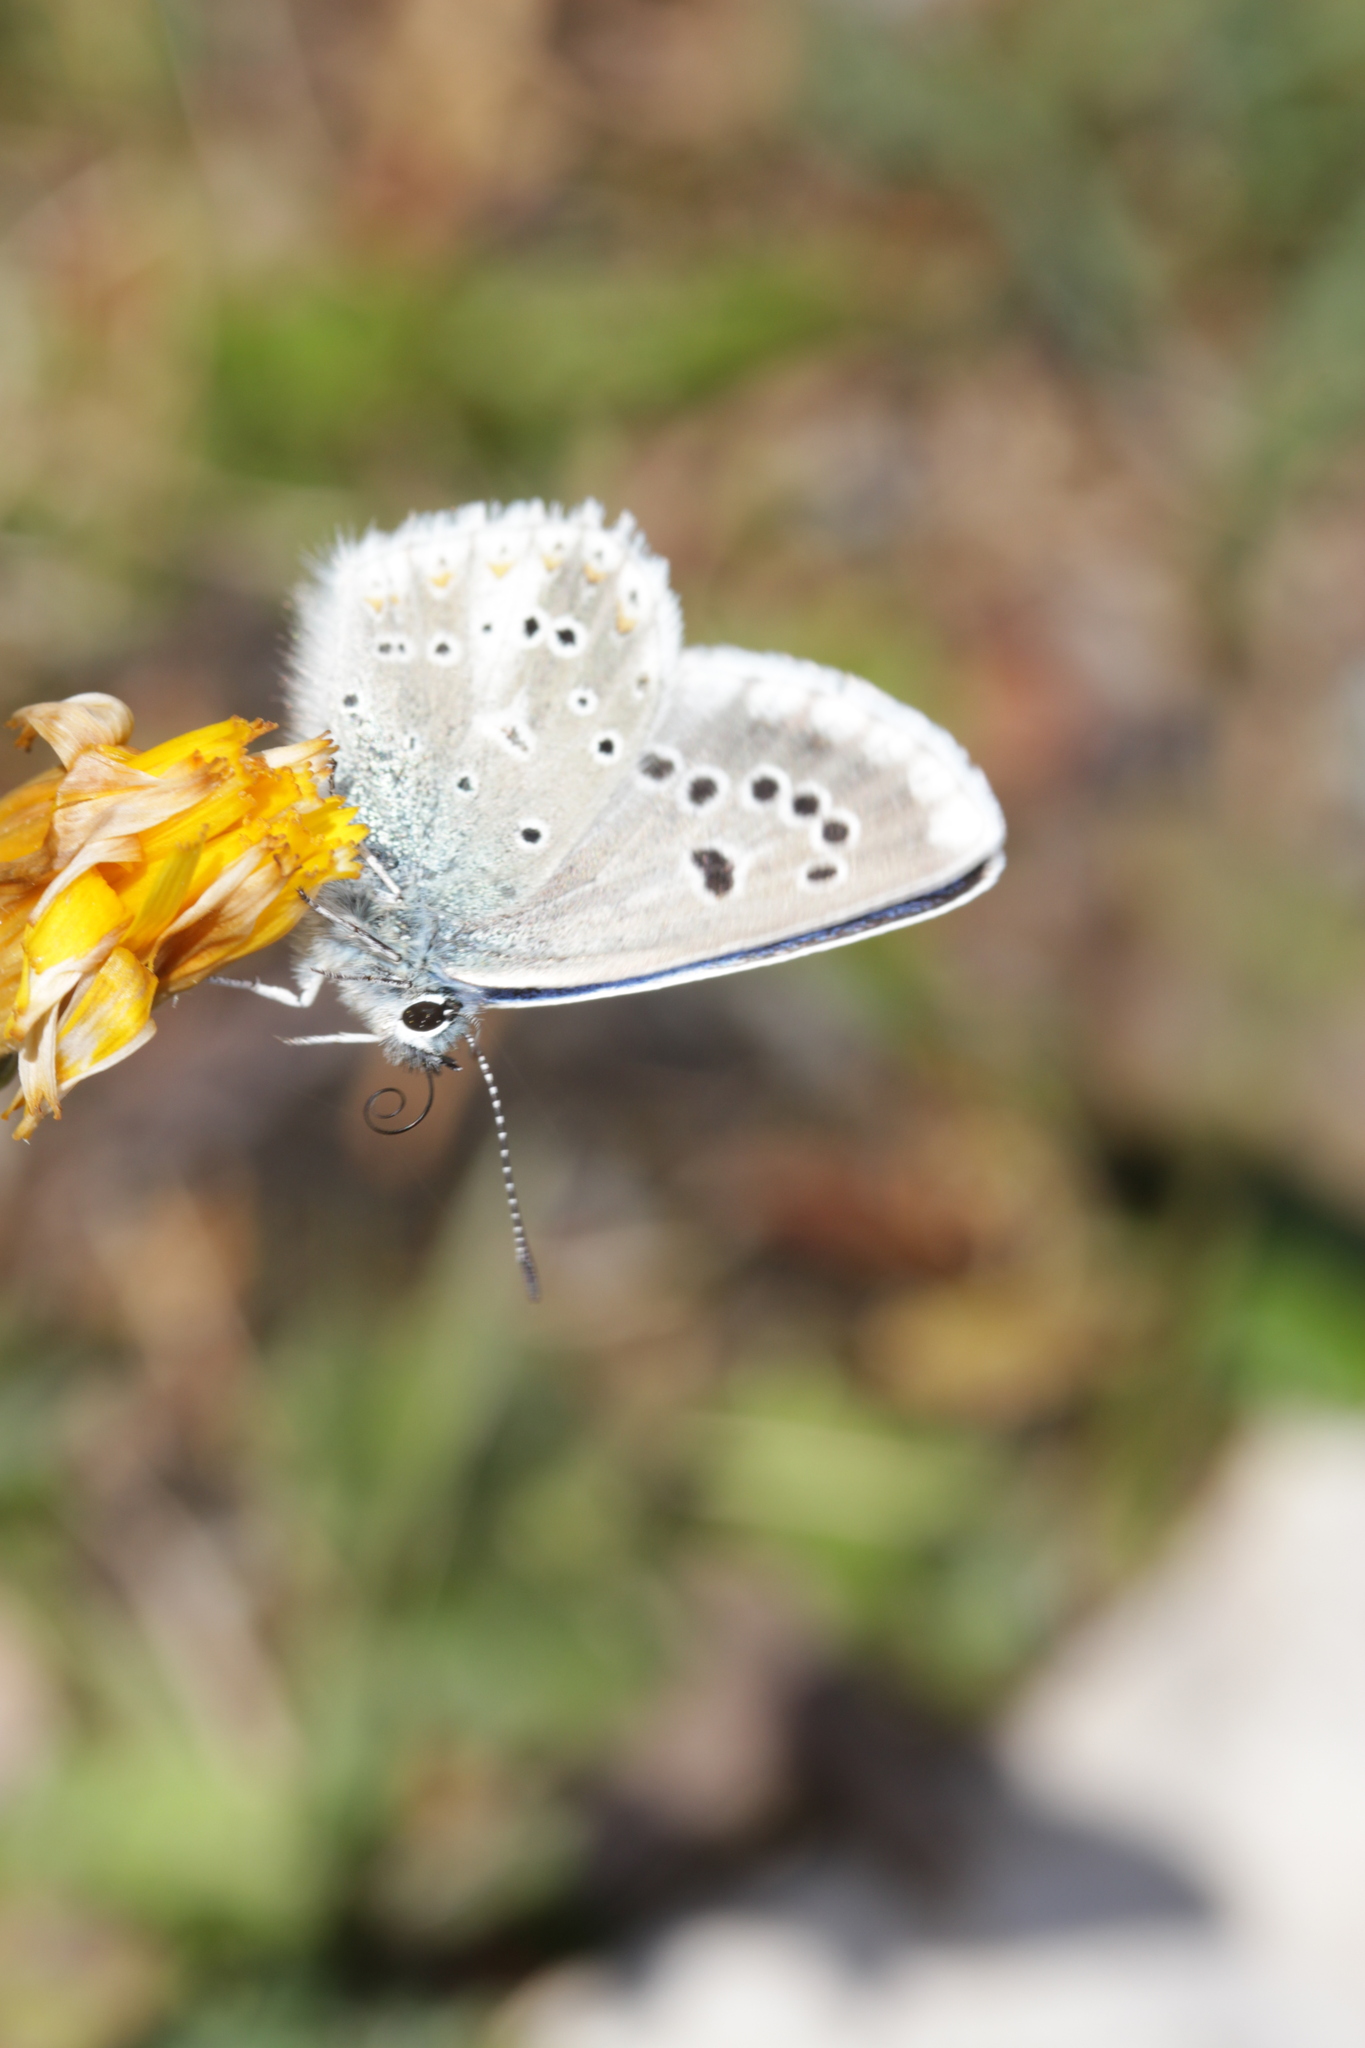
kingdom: Animalia
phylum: Arthropoda
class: Insecta
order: Lepidoptera
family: Lycaenidae
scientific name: Lycaenidae
